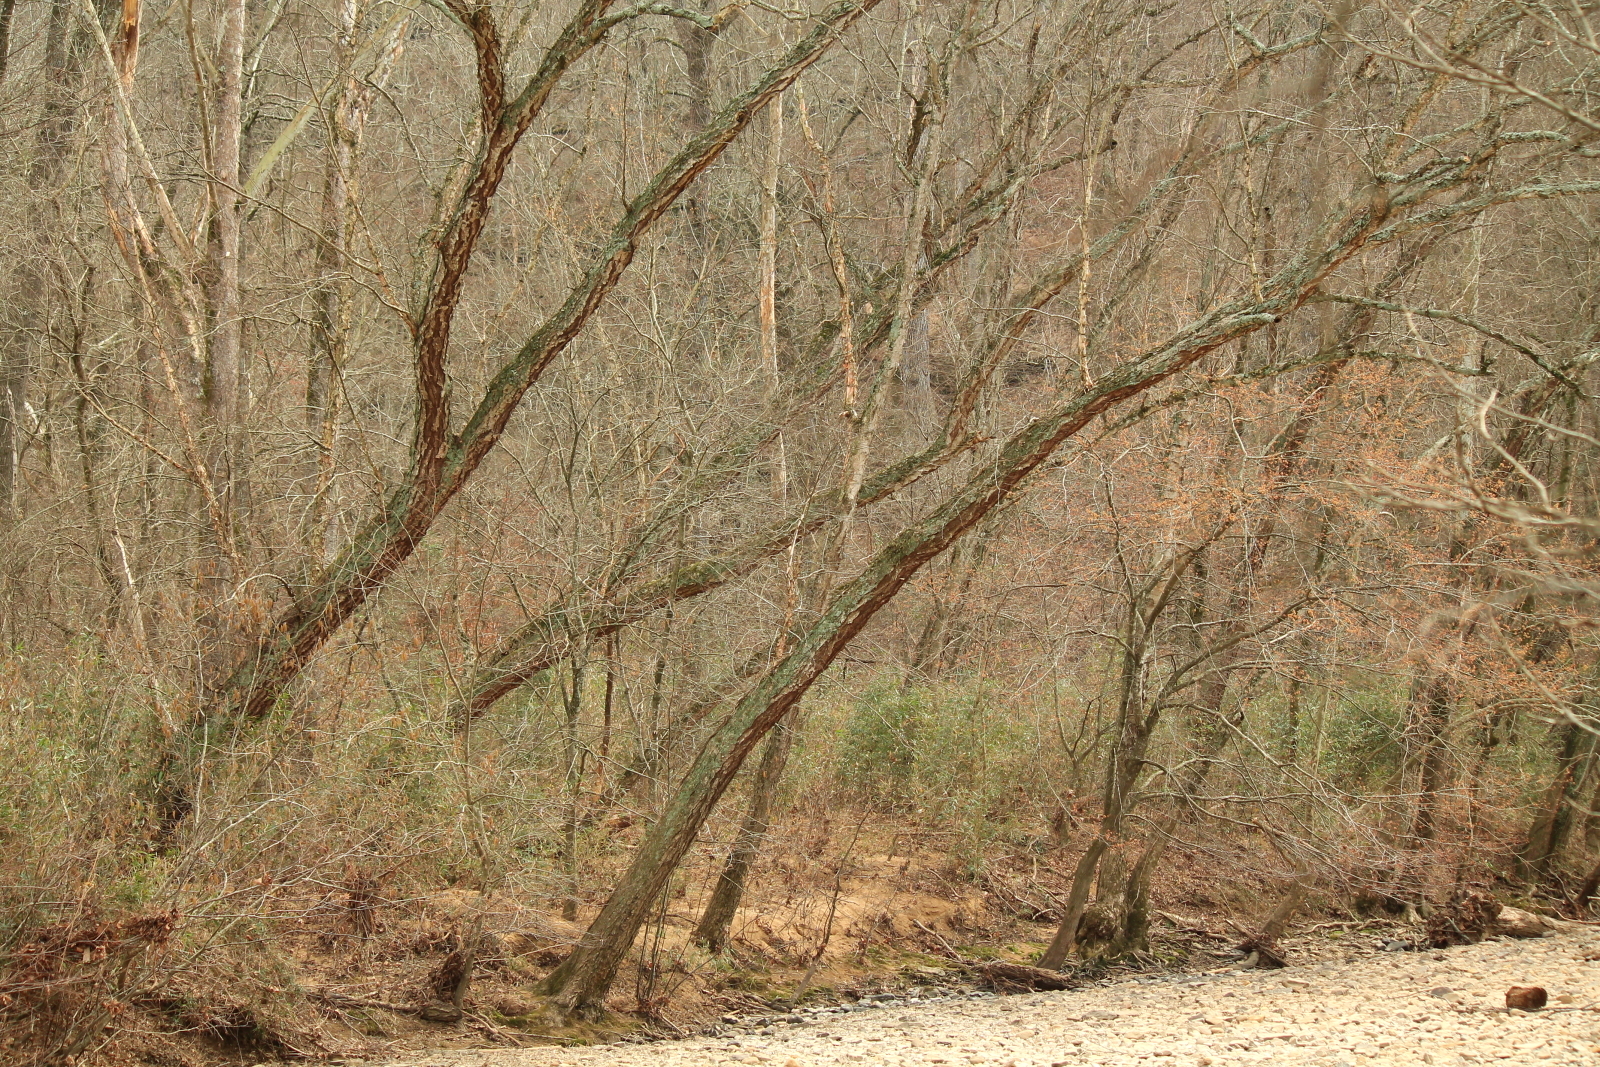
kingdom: Plantae
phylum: Tracheophyta
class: Magnoliopsida
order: Fagales
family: Betulaceae
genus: Betula
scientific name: Betula nigra
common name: Black birch
